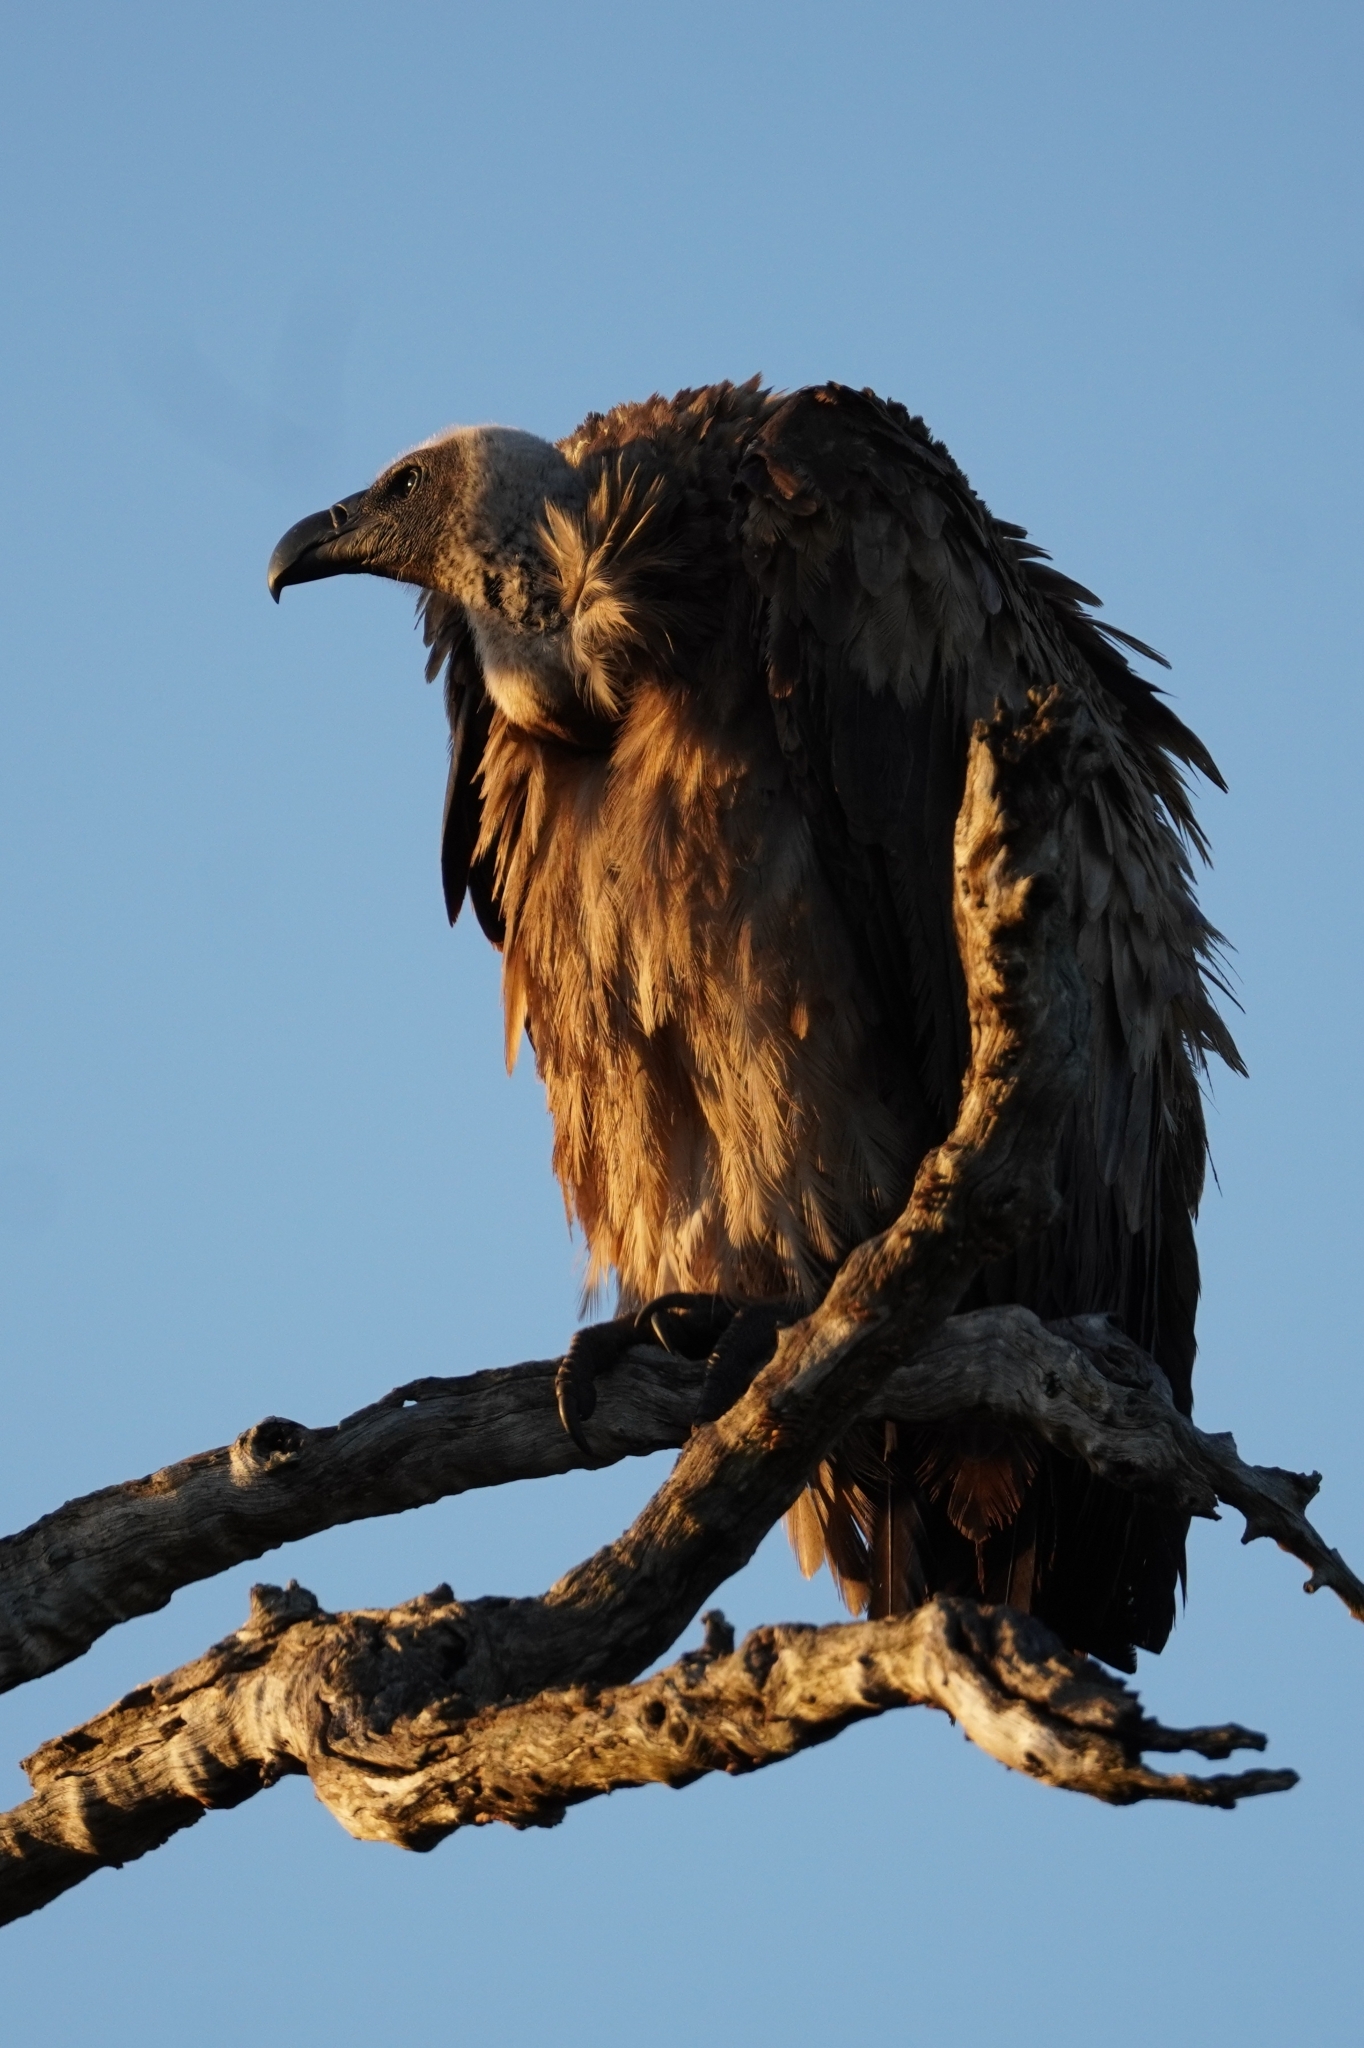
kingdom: Animalia
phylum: Chordata
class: Aves
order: Accipitriformes
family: Accipitridae
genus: Gyps
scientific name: Gyps africanus
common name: White-backed vulture
